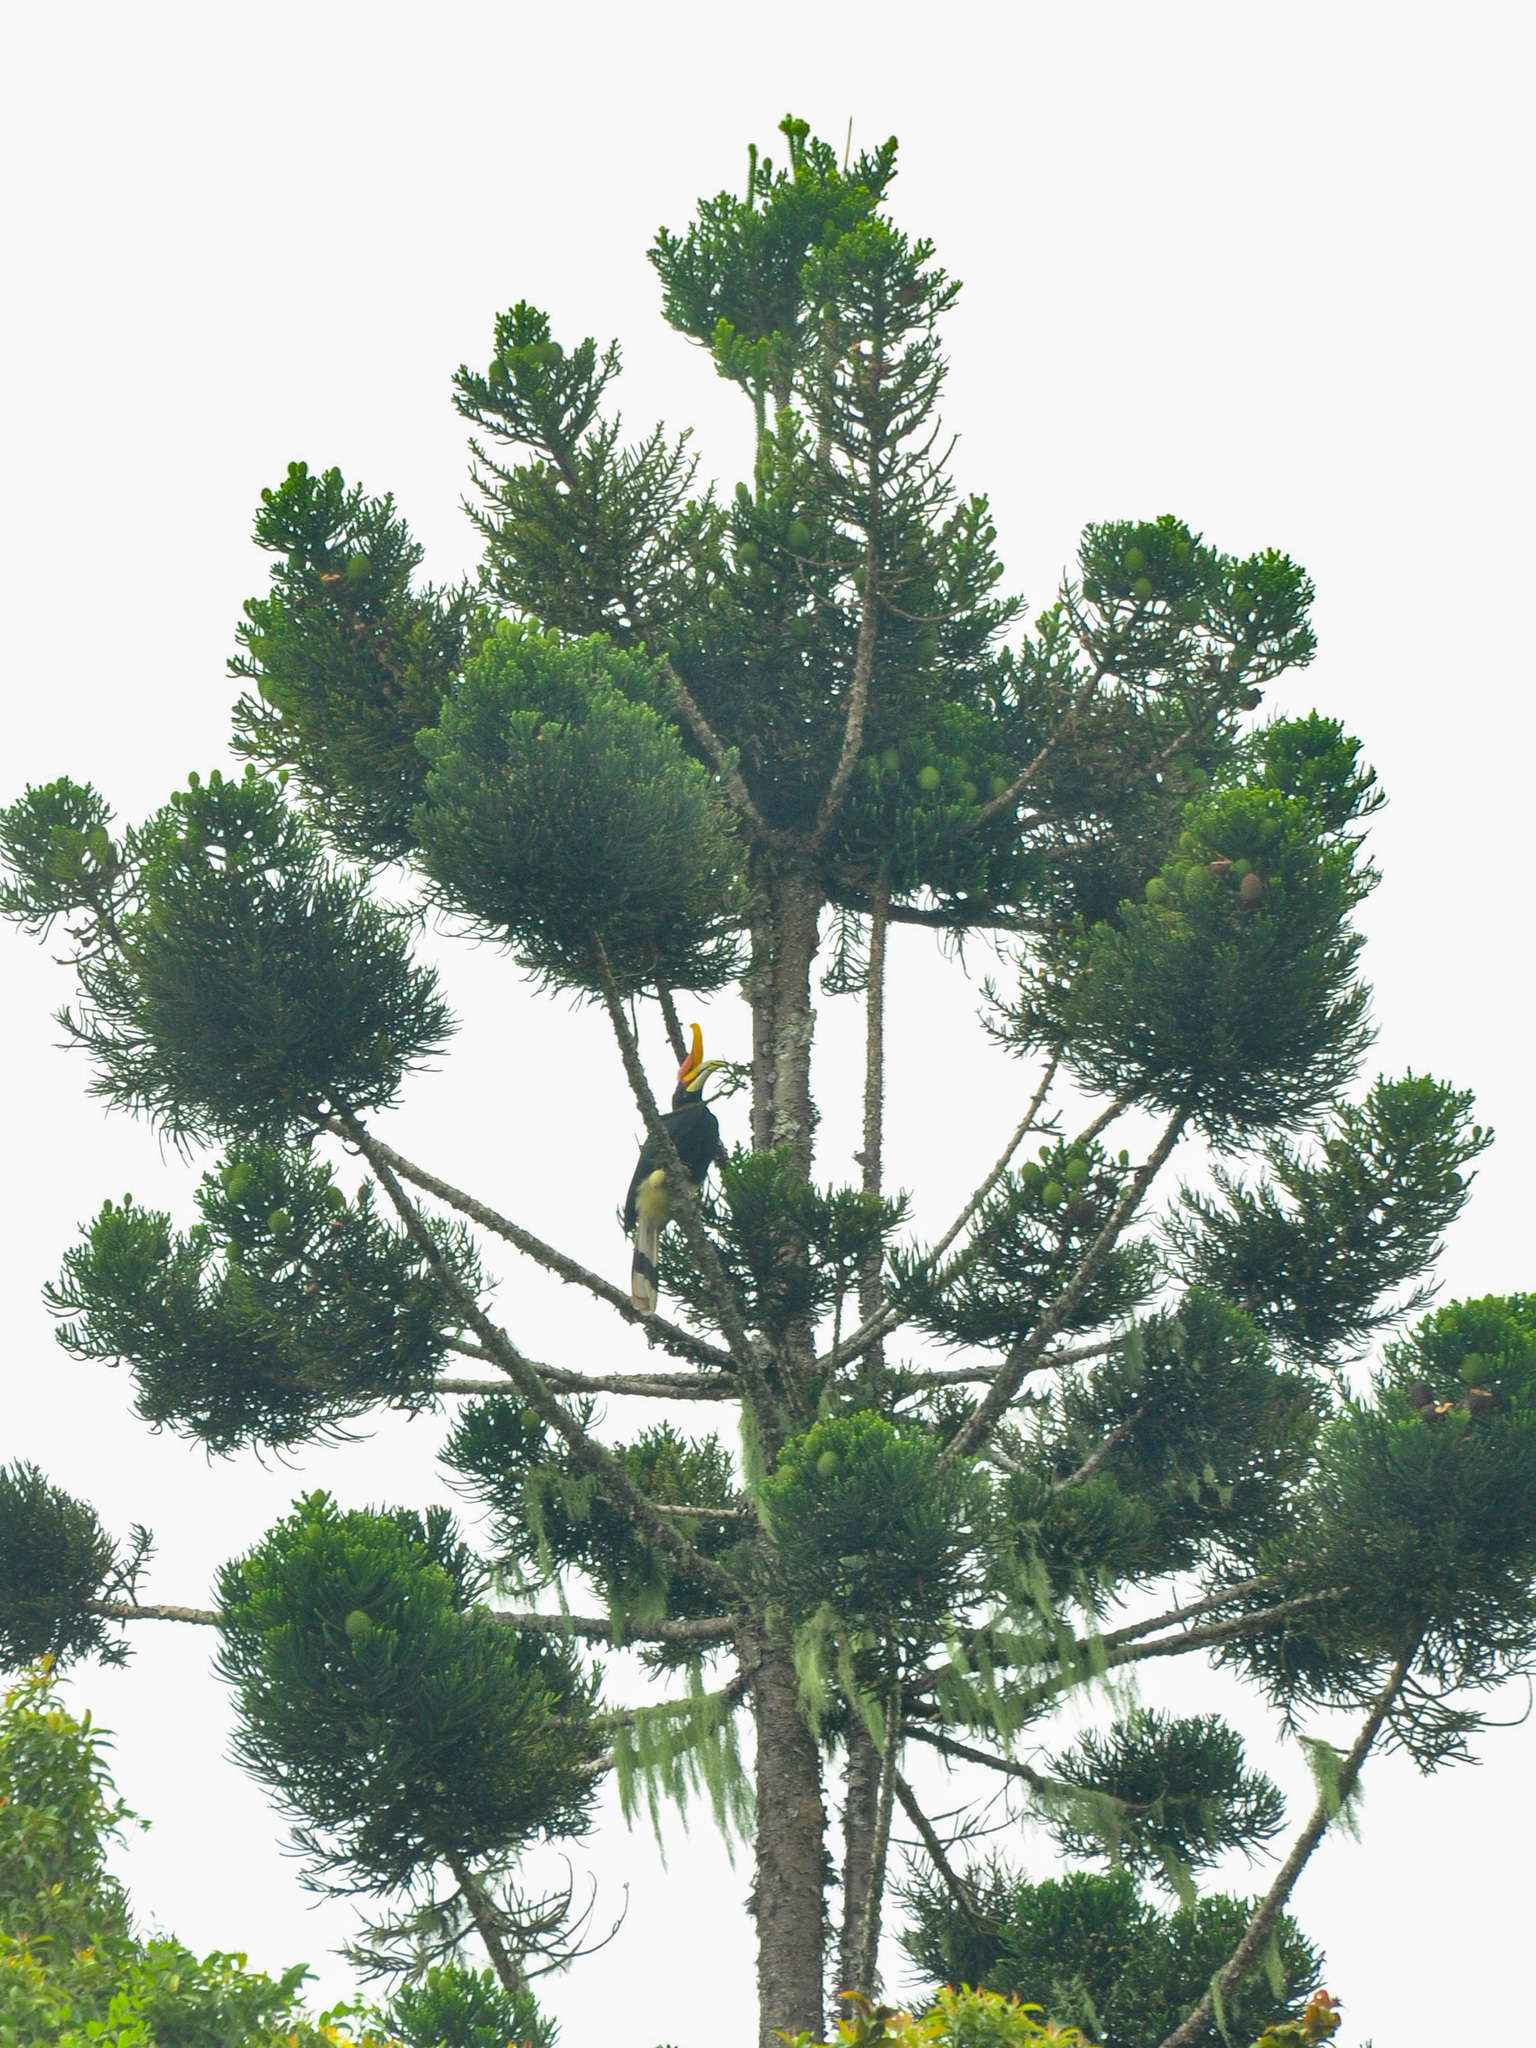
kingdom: Animalia
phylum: Chordata
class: Aves
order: Bucerotiformes
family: Bucerotidae
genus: Buceros
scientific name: Buceros rhinoceros
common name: Rhinoceros hornbill
